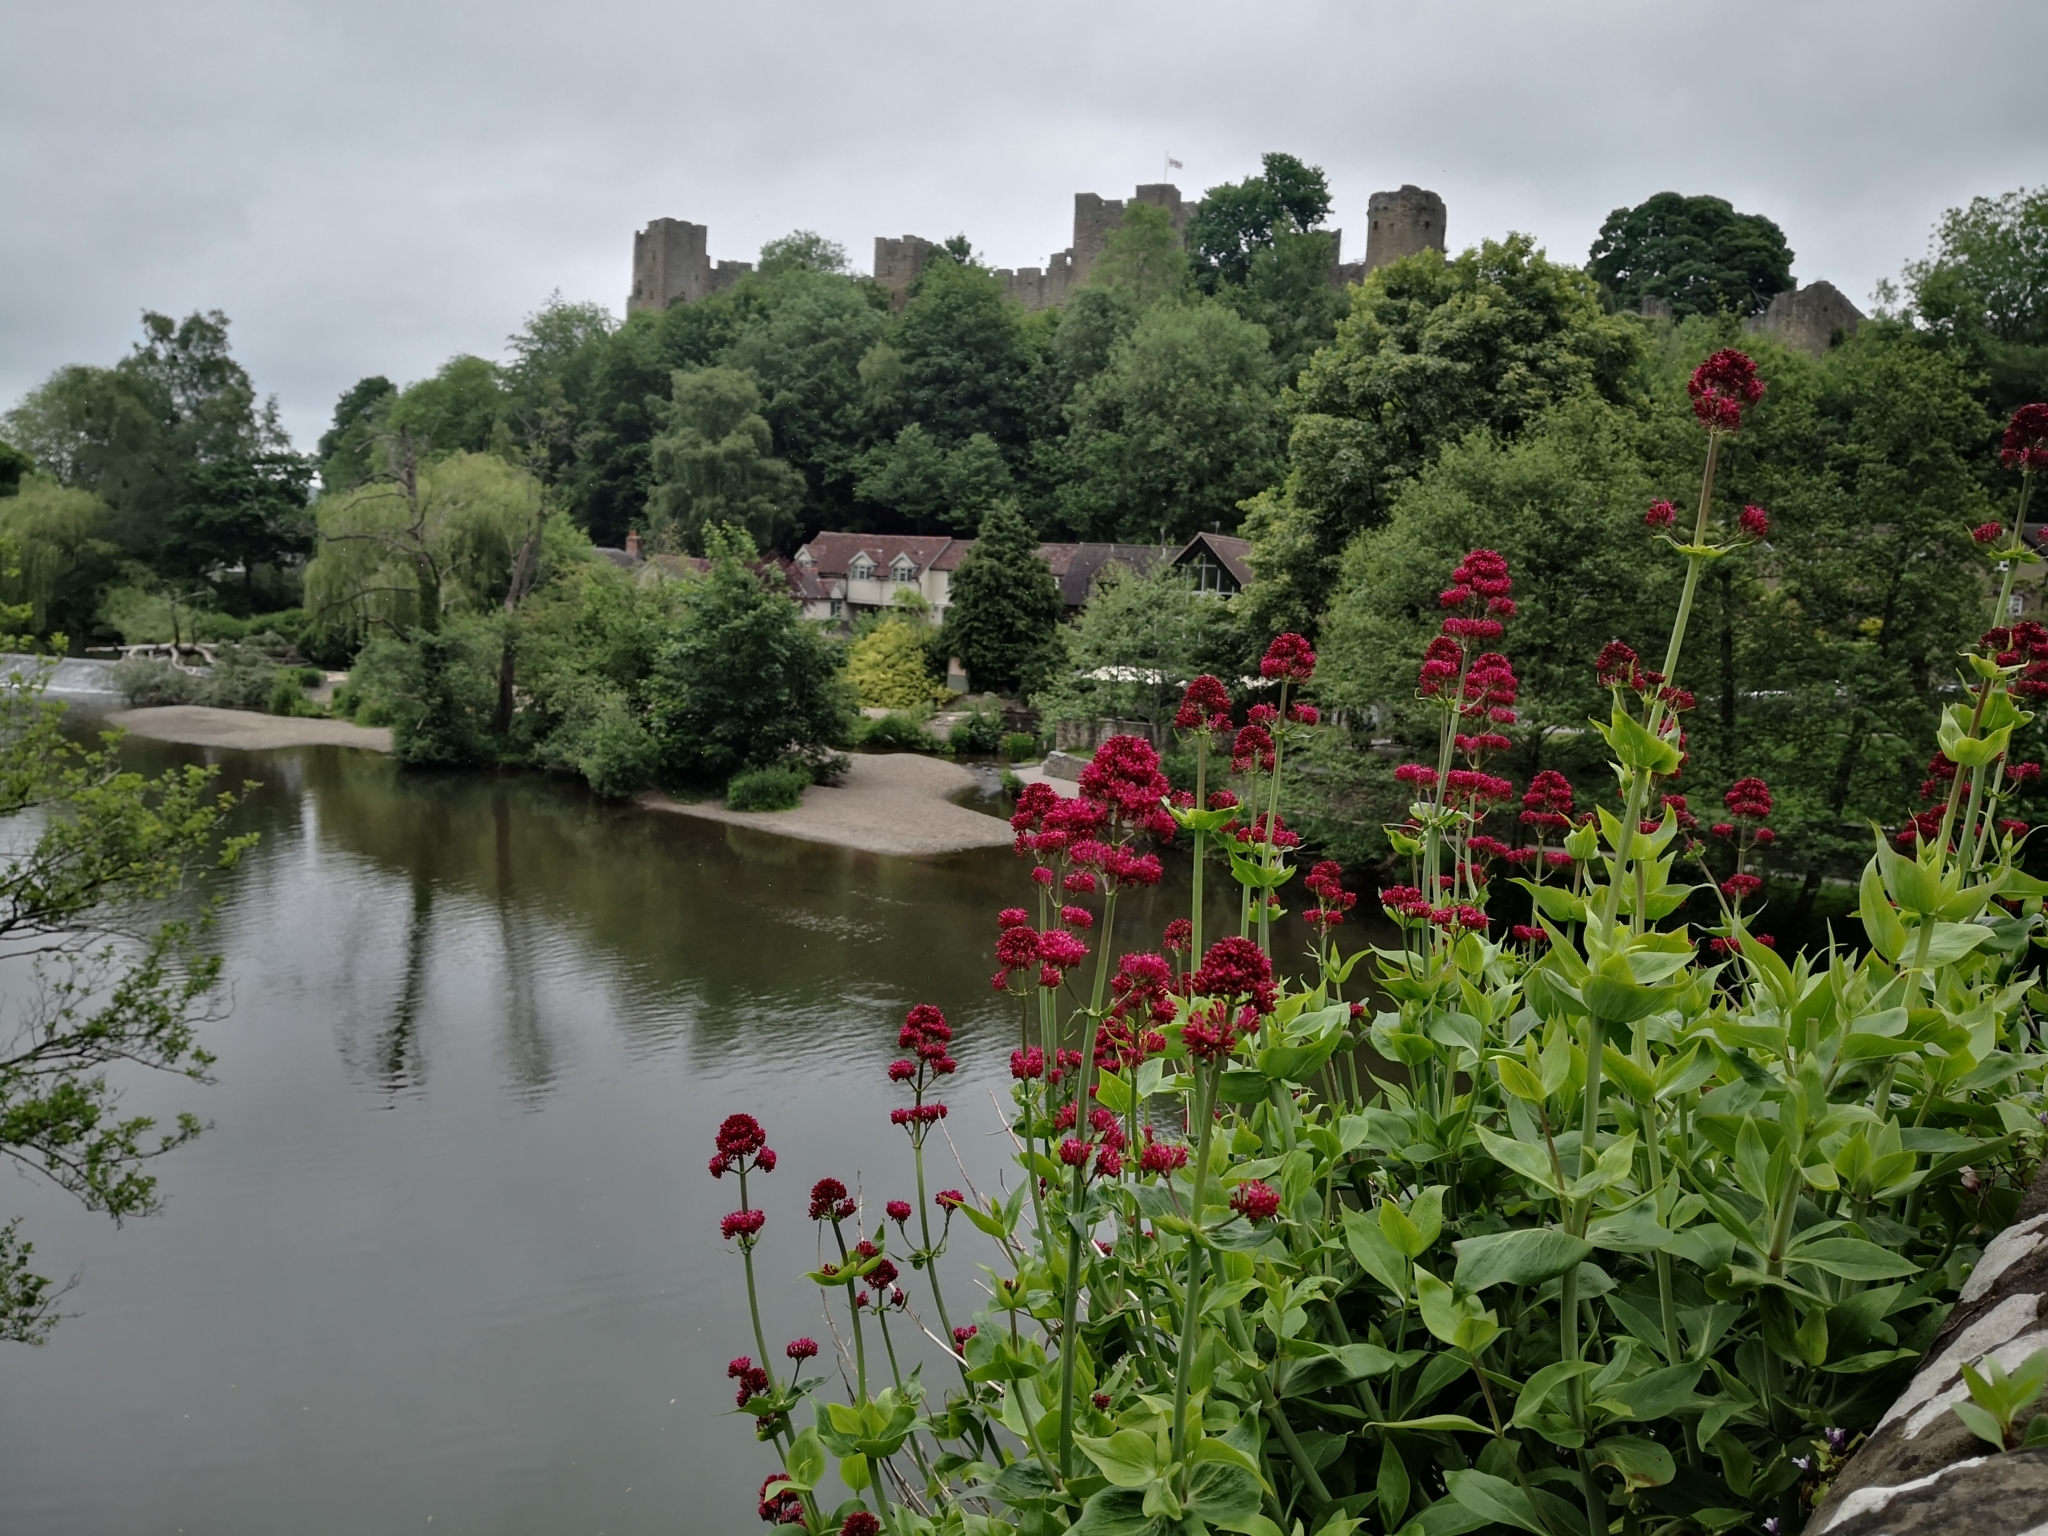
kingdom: Plantae
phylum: Tracheophyta
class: Magnoliopsida
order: Dipsacales
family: Caprifoliaceae
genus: Centranthus
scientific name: Centranthus ruber
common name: Red valerian
